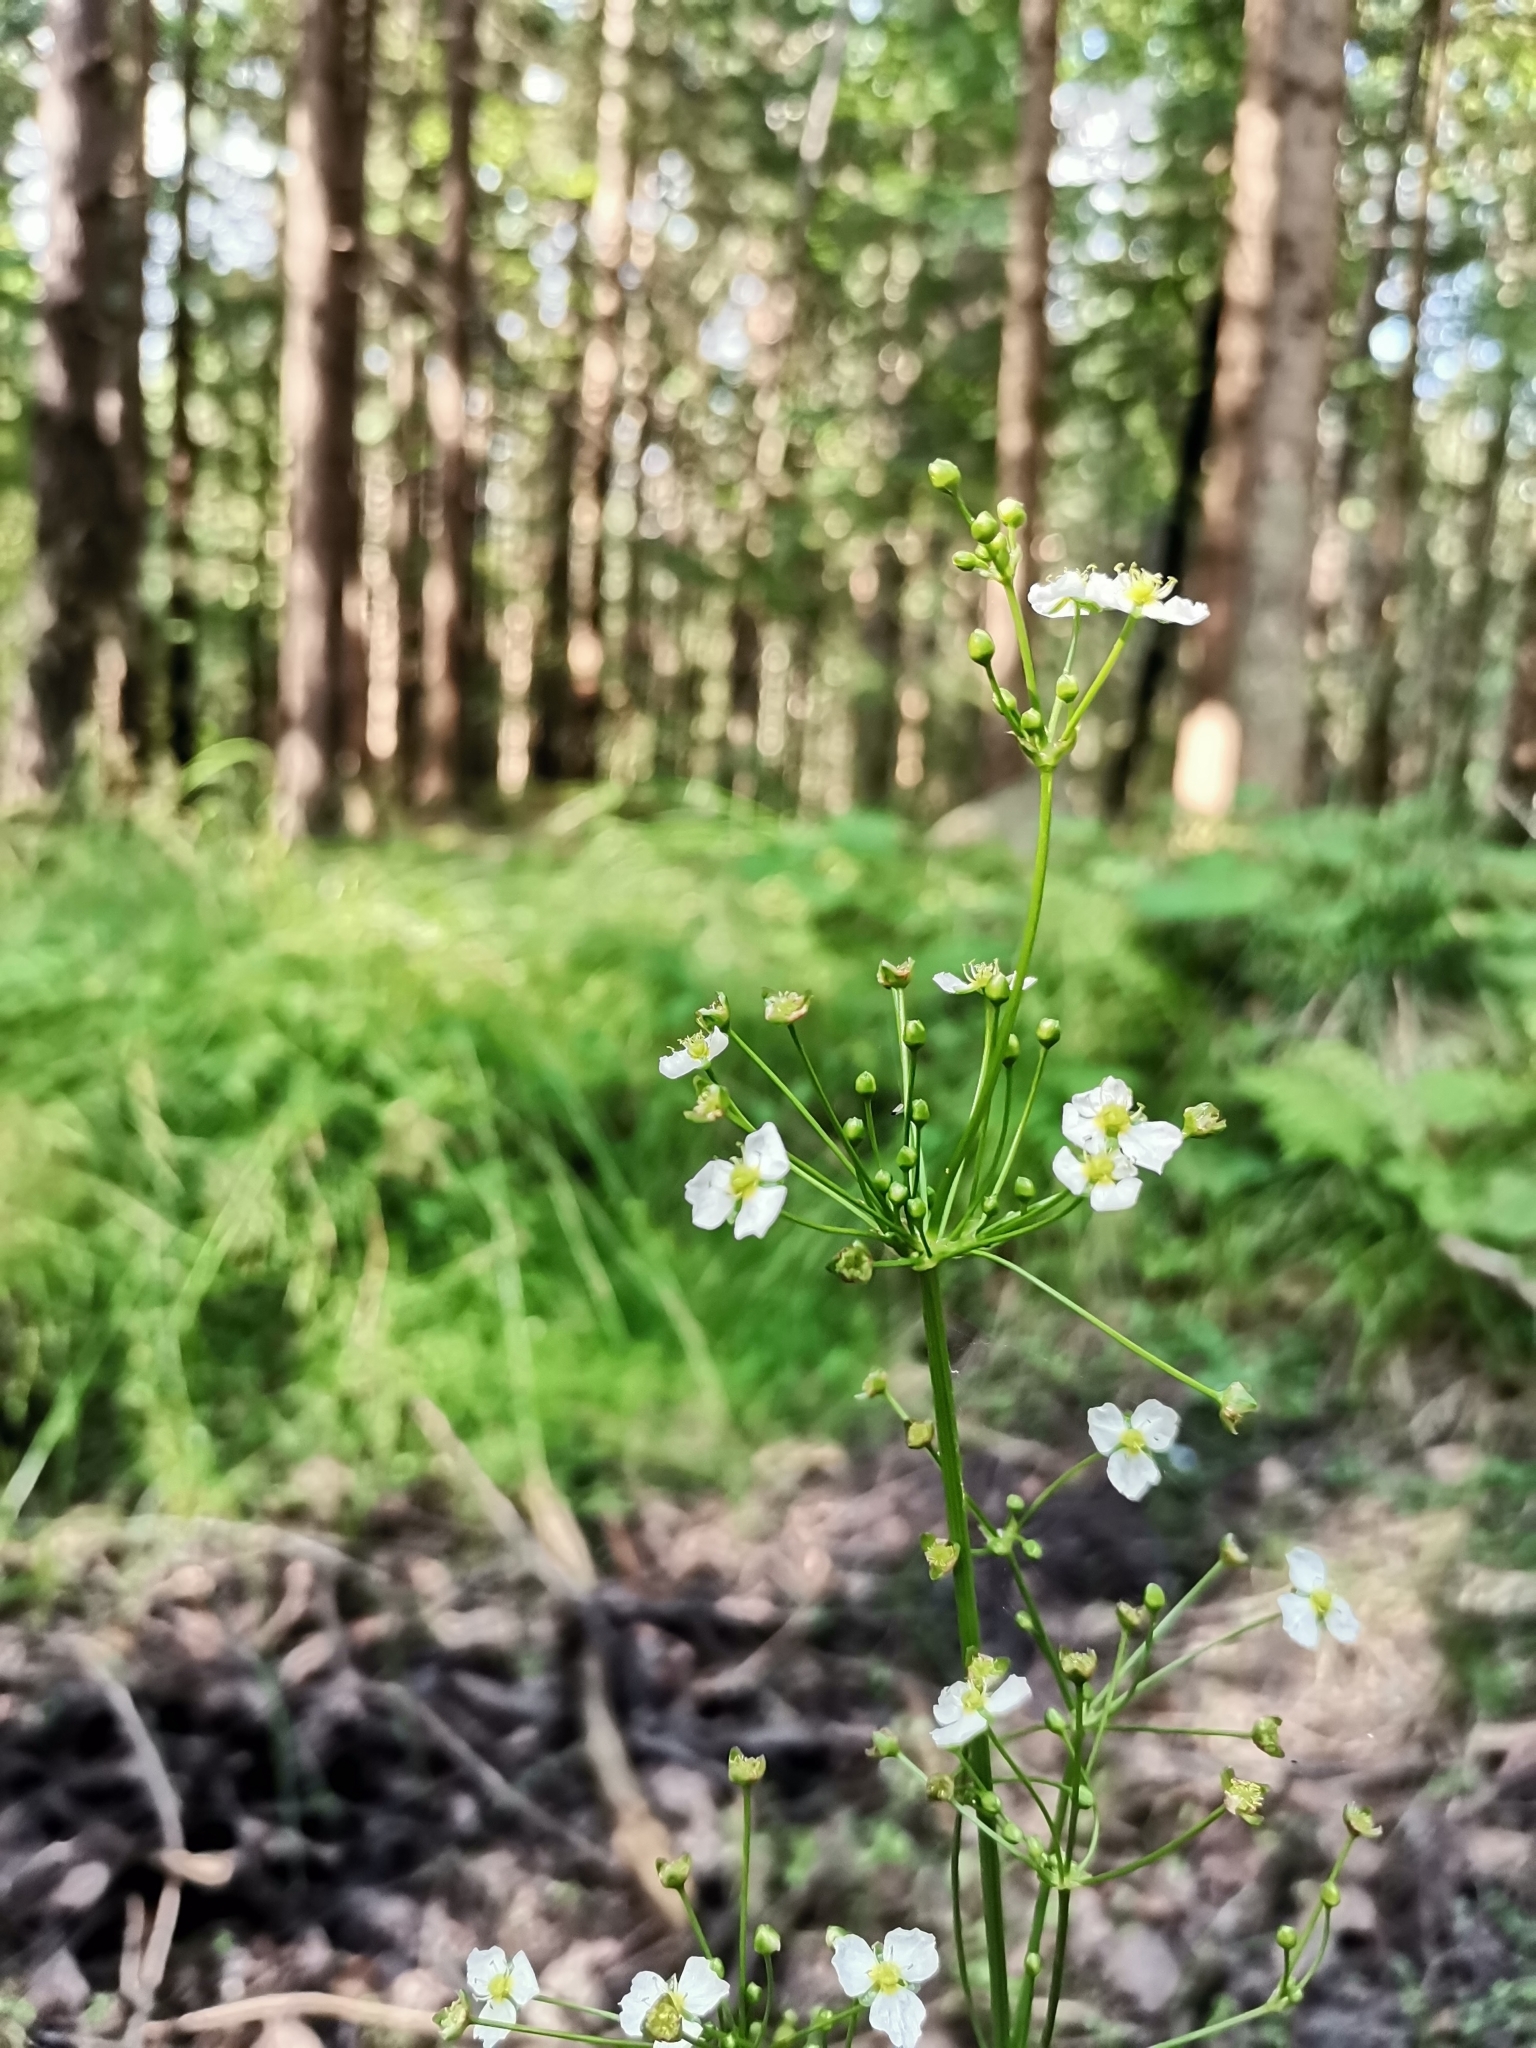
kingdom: Plantae
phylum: Tracheophyta
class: Liliopsida
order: Alismatales
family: Alismataceae
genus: Alisma
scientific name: Alisma plantago-aquatica
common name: Water-plantain
